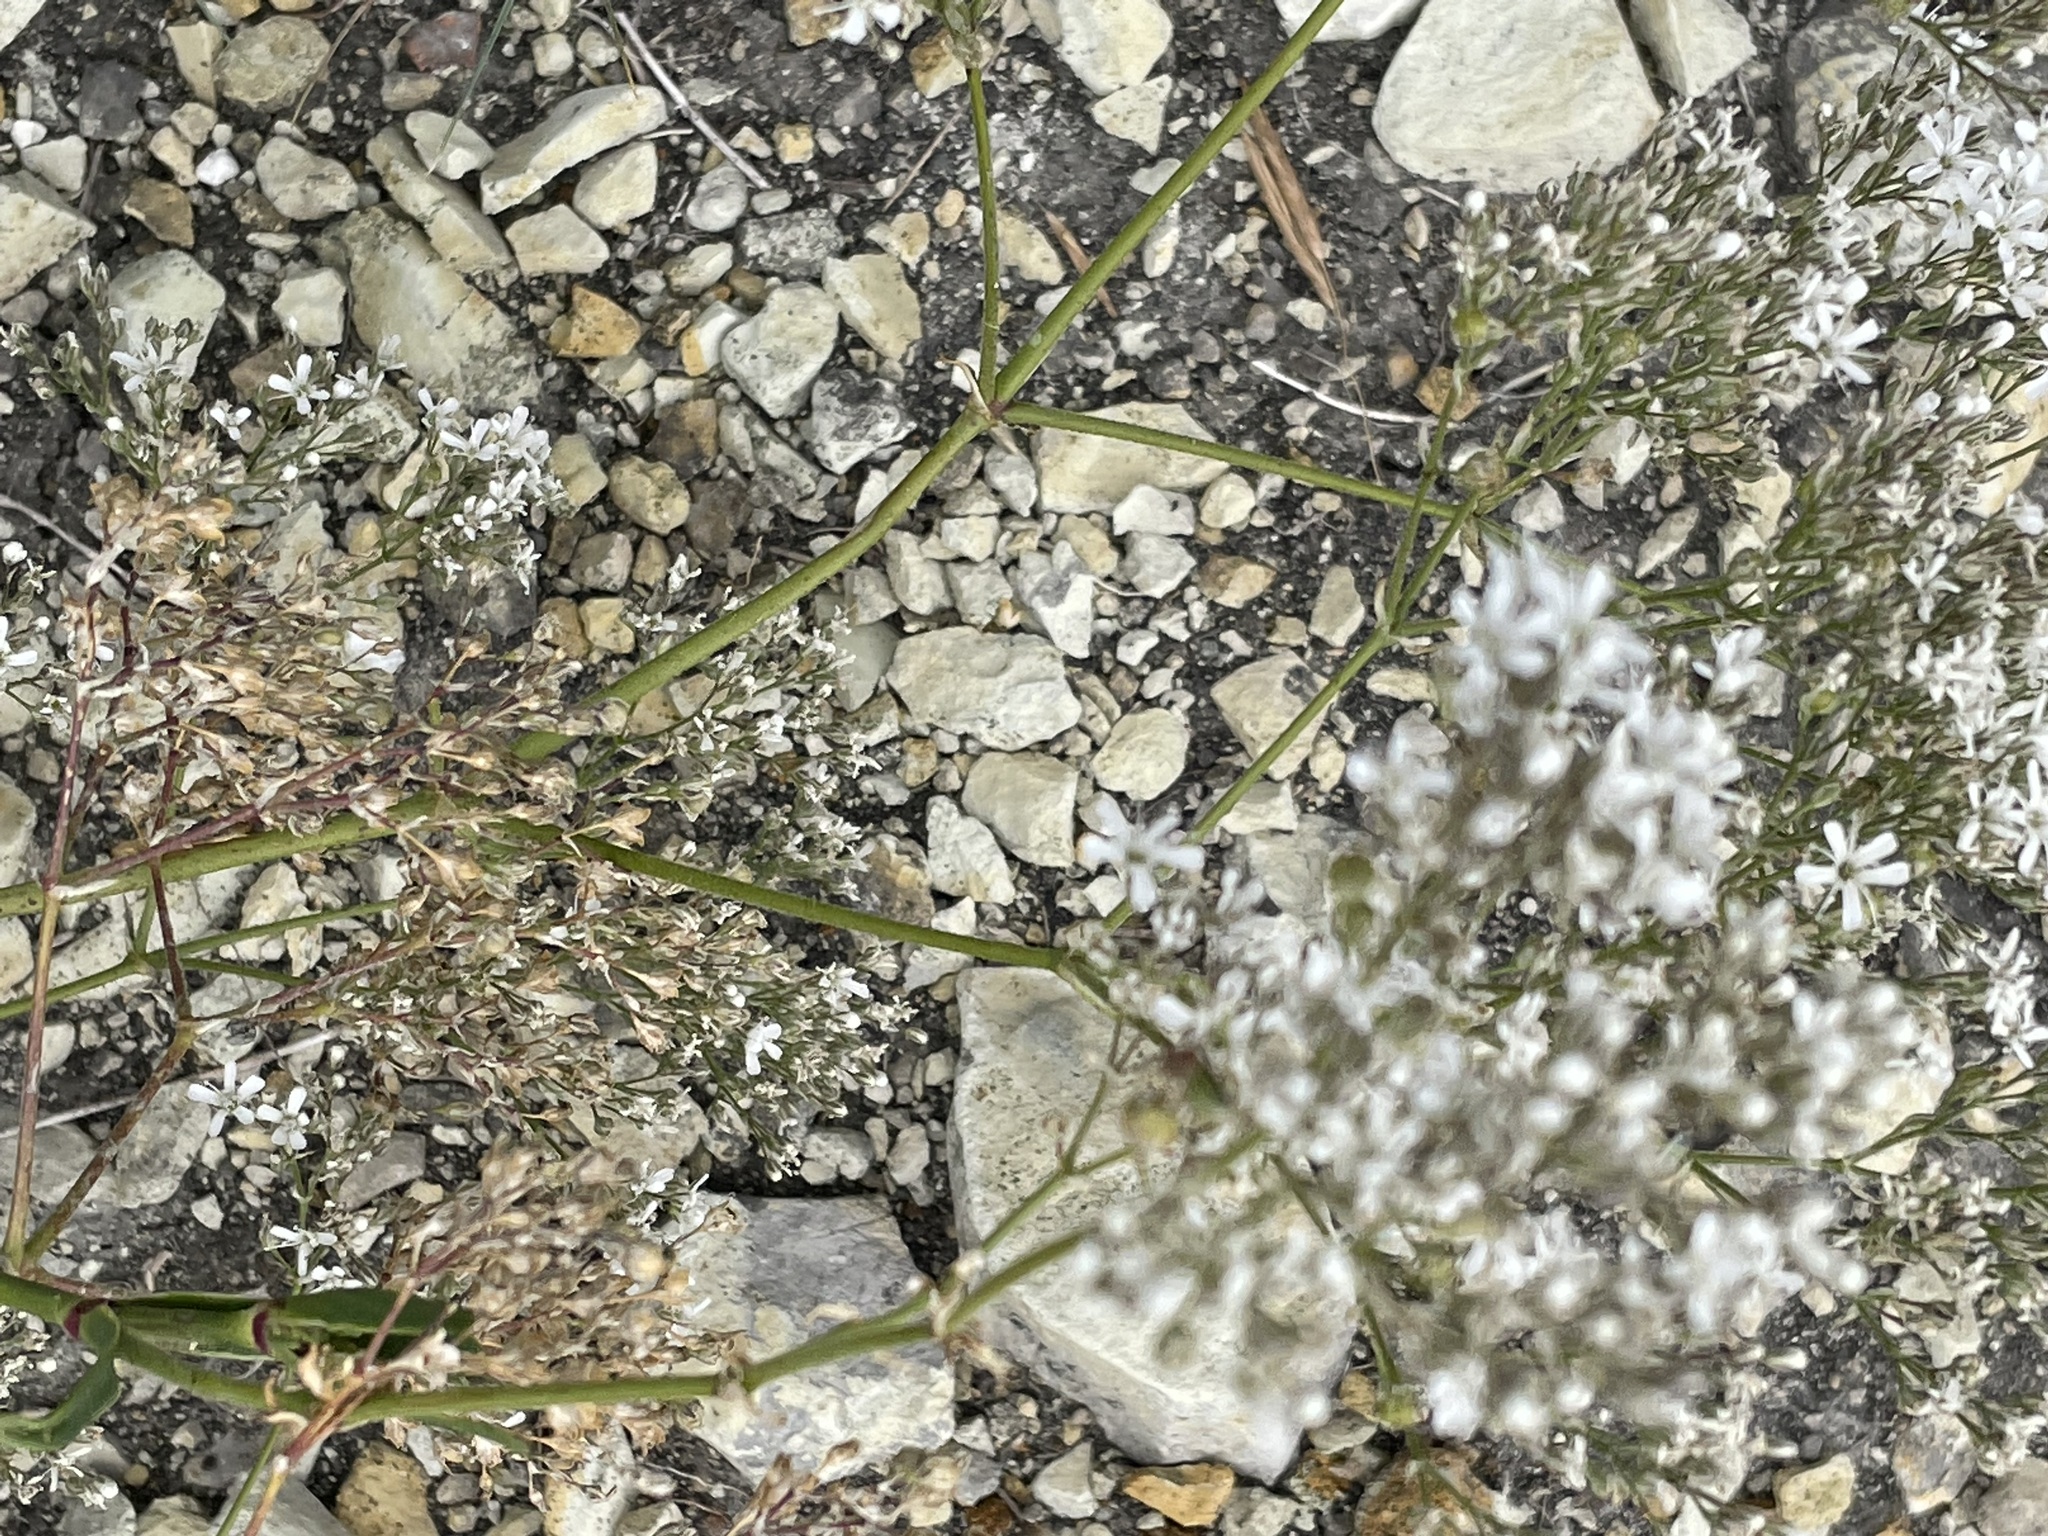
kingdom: Plantae
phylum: Tracheophyta
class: Magnoliopsida
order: Caryophyllales
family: Caryophyllaceae
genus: Gypsophila
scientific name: Gypsophila altissima
